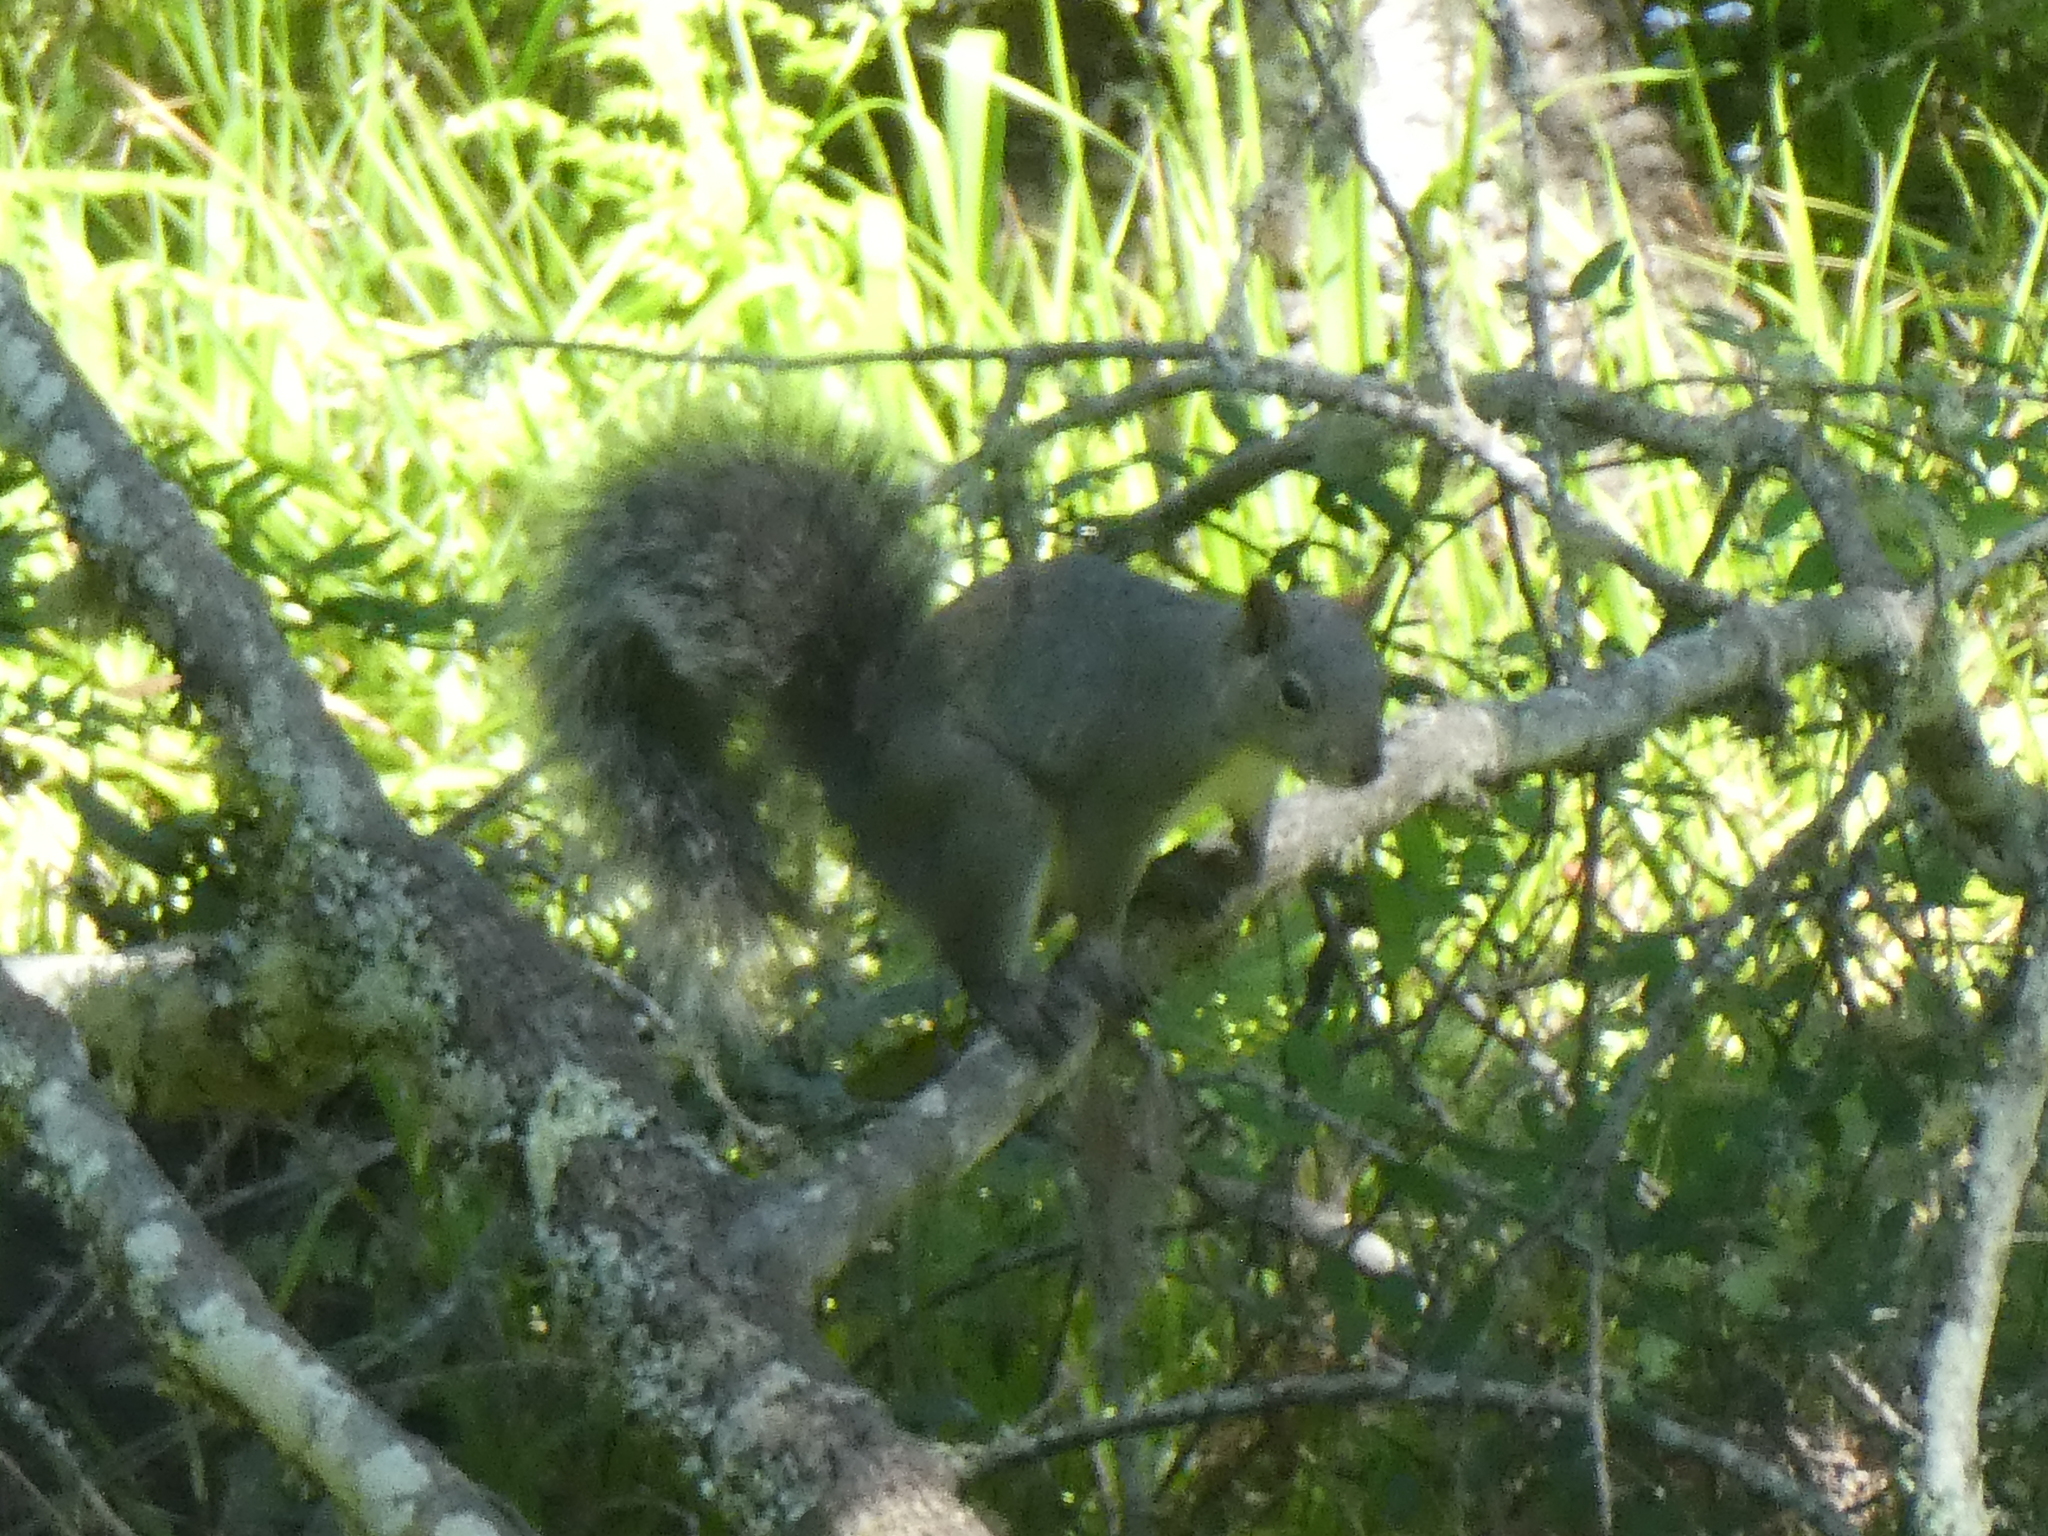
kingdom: Animalia
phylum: Chordata
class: Mammalia
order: Rodentia
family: Sciuridae
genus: Sciurus
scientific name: Sciurus griseus
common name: Western gray squirrel
